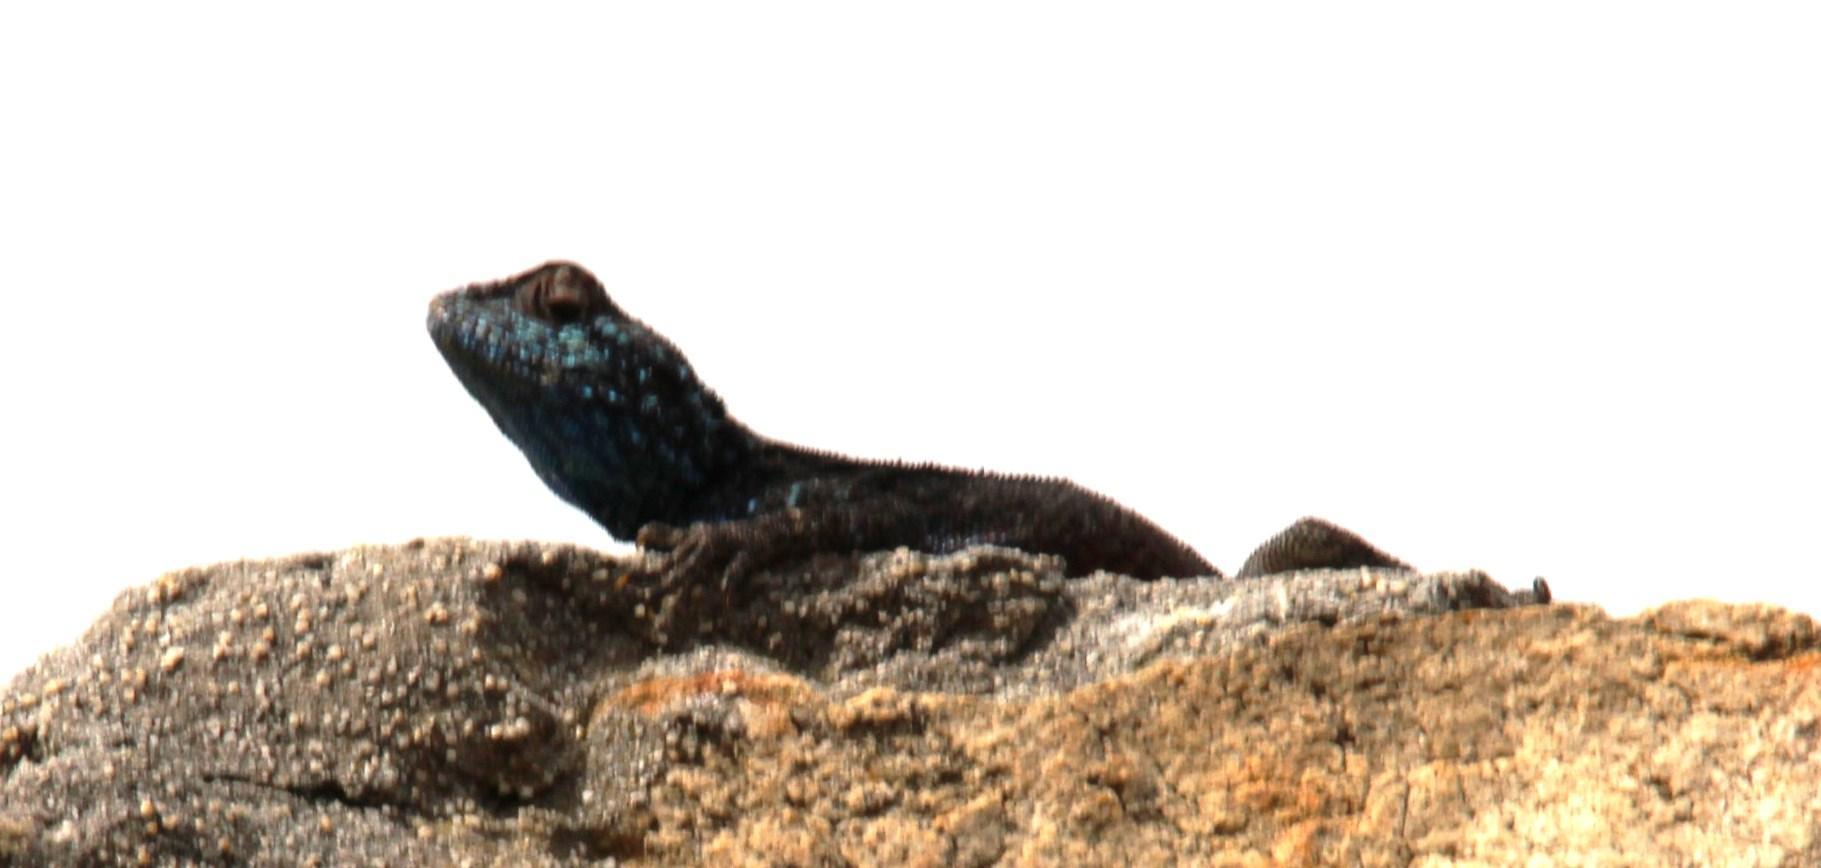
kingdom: Animalia
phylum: Chordata
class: Squamata
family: Agamidae
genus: Agama
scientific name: Agama atra
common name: Southern african rock agama
